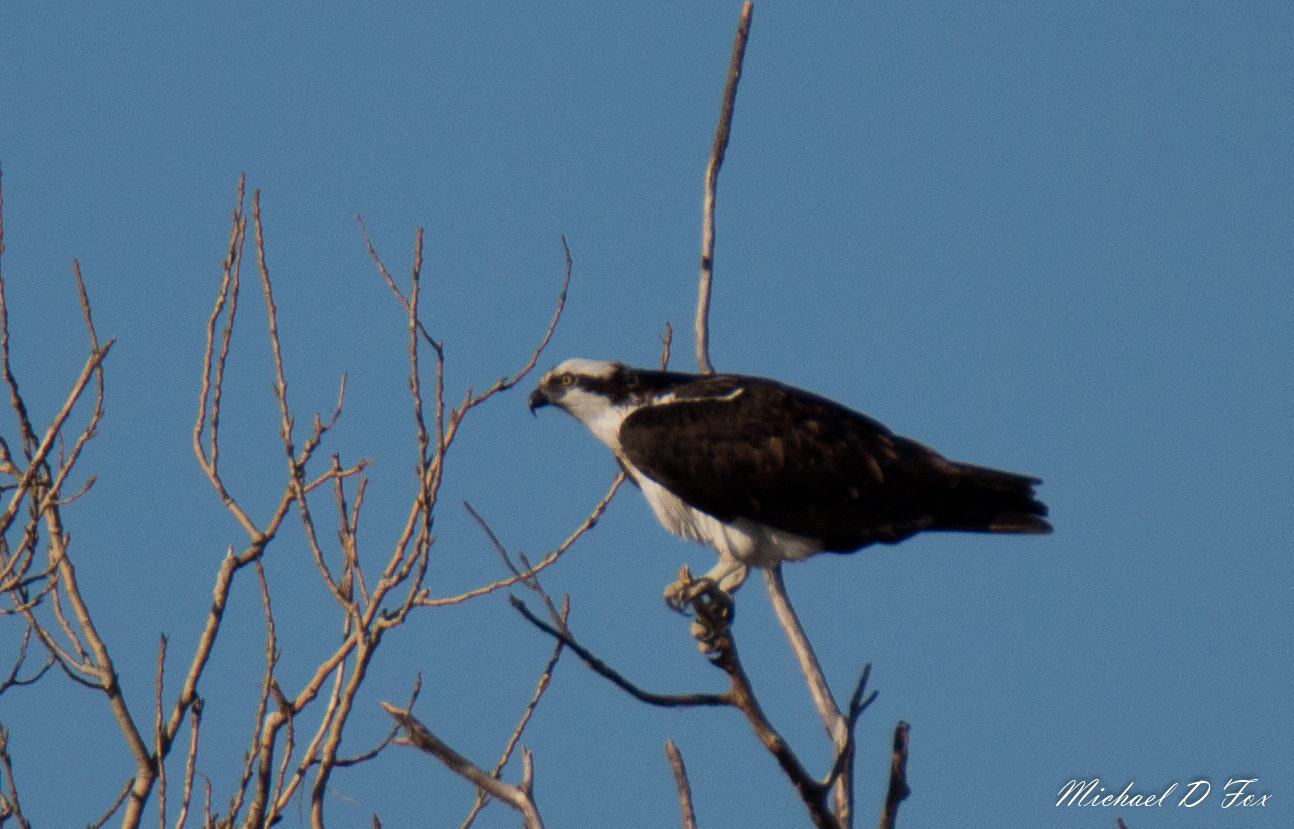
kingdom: Animalia
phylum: Chordata
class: Aves
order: Accipitriformes
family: Pandionidae
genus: Pandion
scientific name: Pandion haliaetus
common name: Osprey
